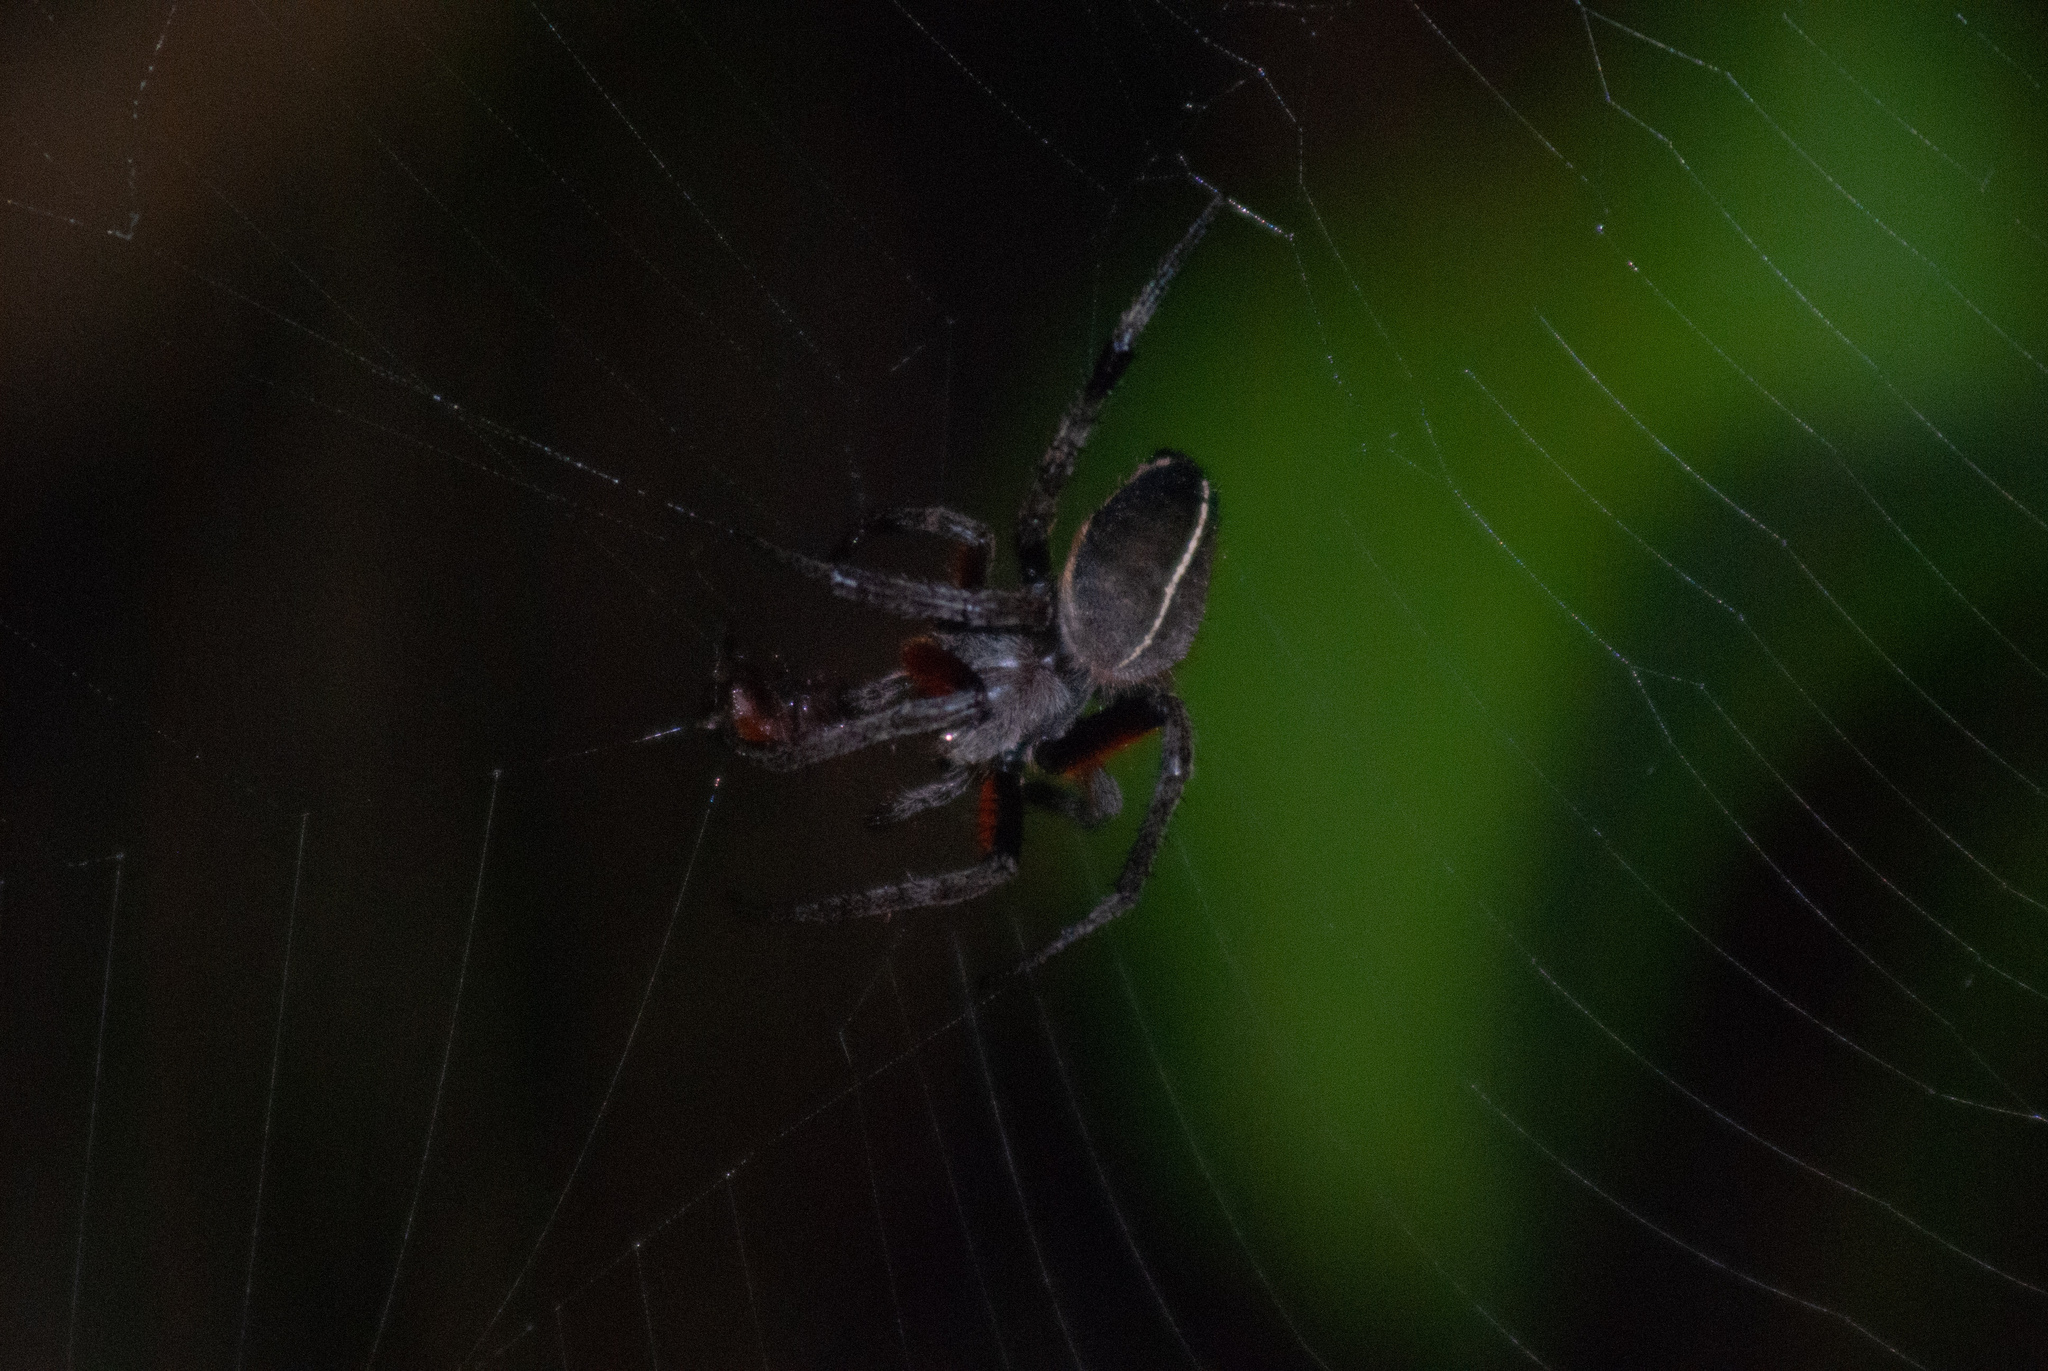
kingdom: Animalia
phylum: Arthropoda
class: Arachnida
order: Araneae
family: Araneidae
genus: Eriophora
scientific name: Eriophora fuliginea
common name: Orb weavers
